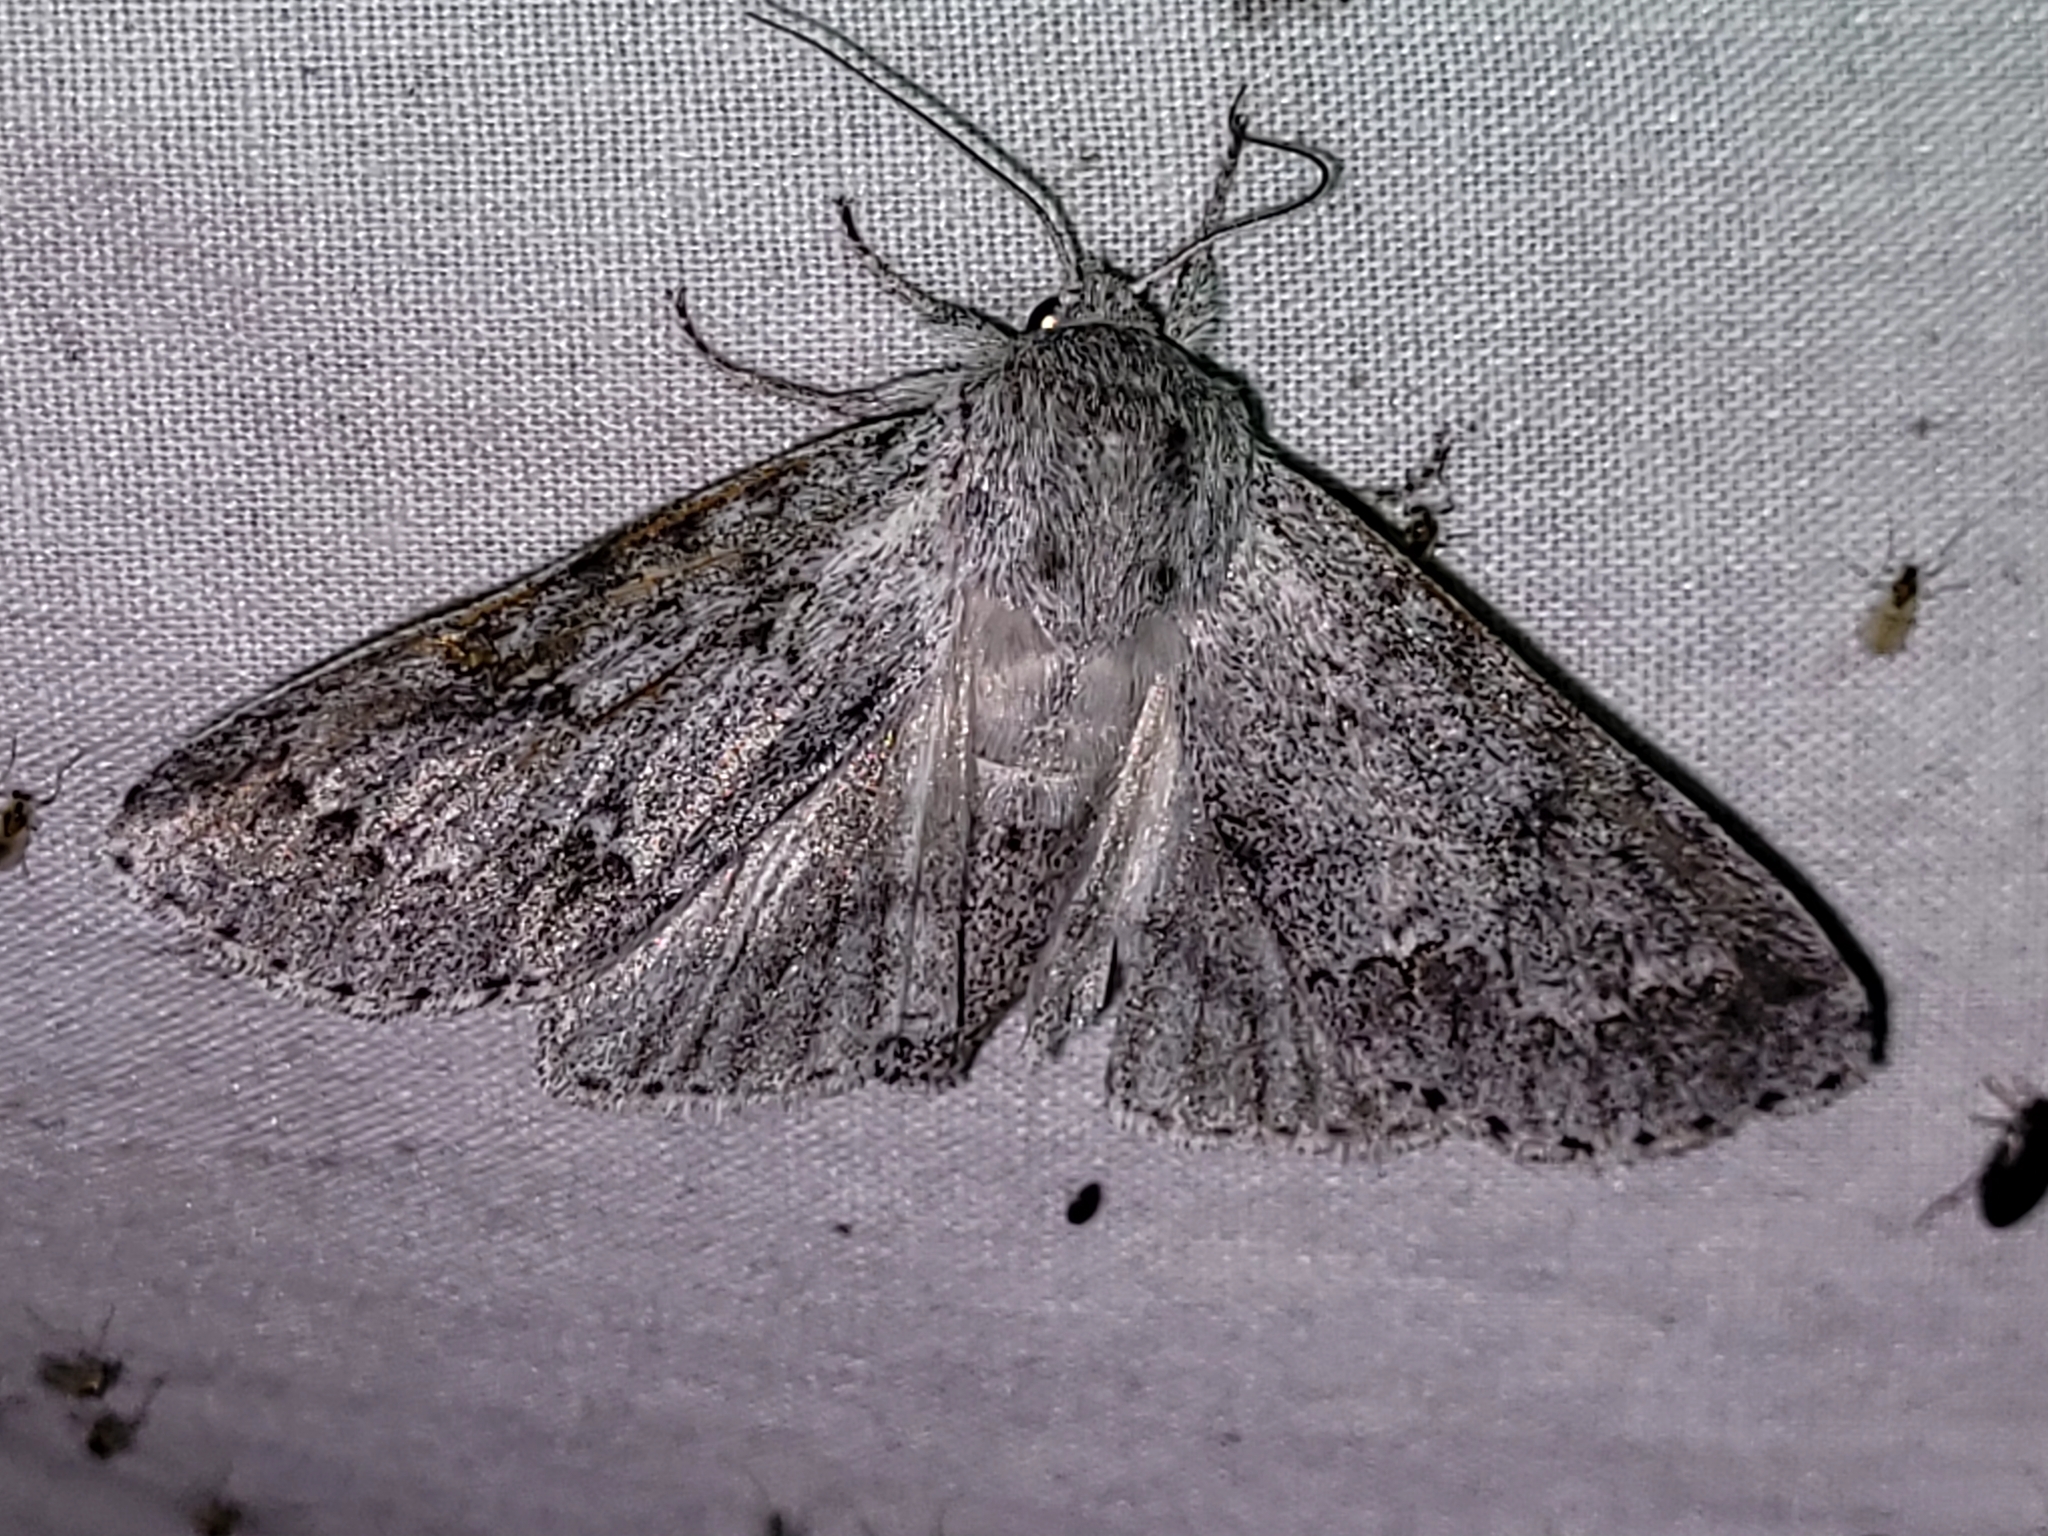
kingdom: Animalia
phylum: Arthropoda
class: Insecta
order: Lepidoptera
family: Noctuidae
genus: Acronicta
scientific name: Acronicta insita
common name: Large gray dagger
